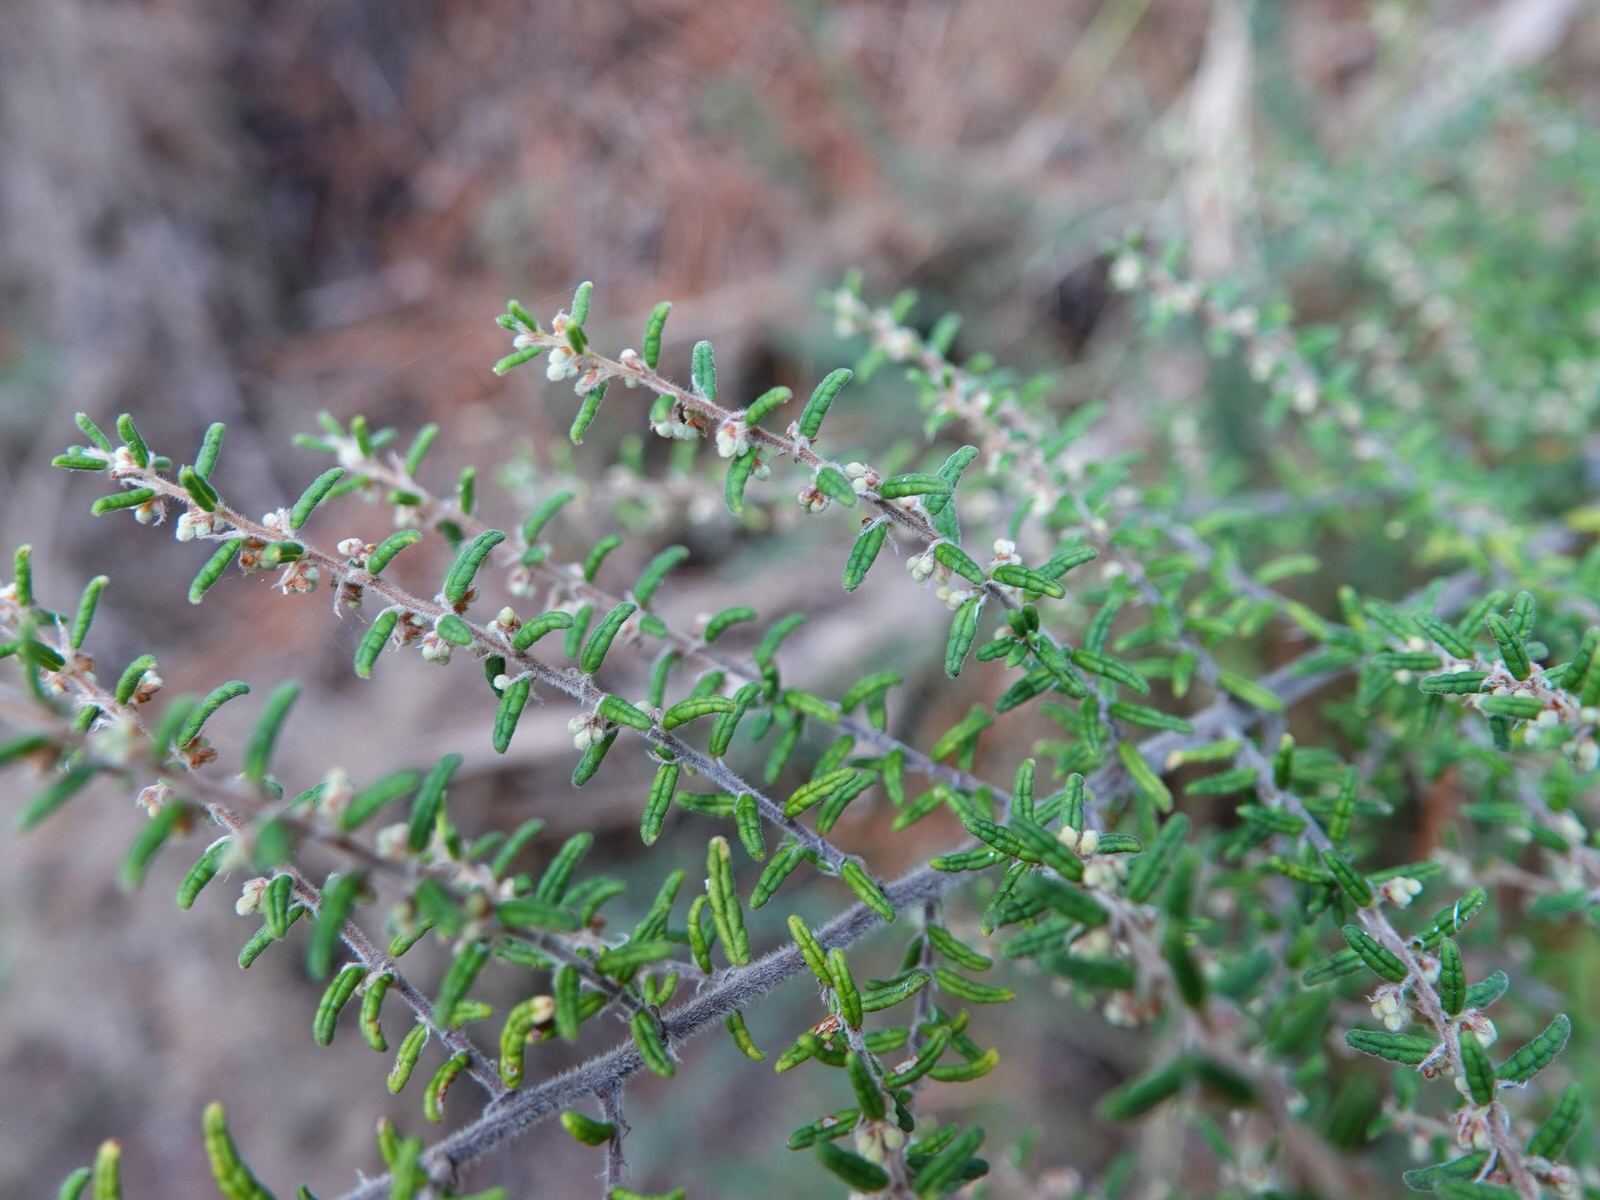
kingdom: Plantae
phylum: Tracheophyta
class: Magnoliopsida
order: Rosales
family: Rhamnaceae
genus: Pomaderris
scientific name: Pomaderris amoena
